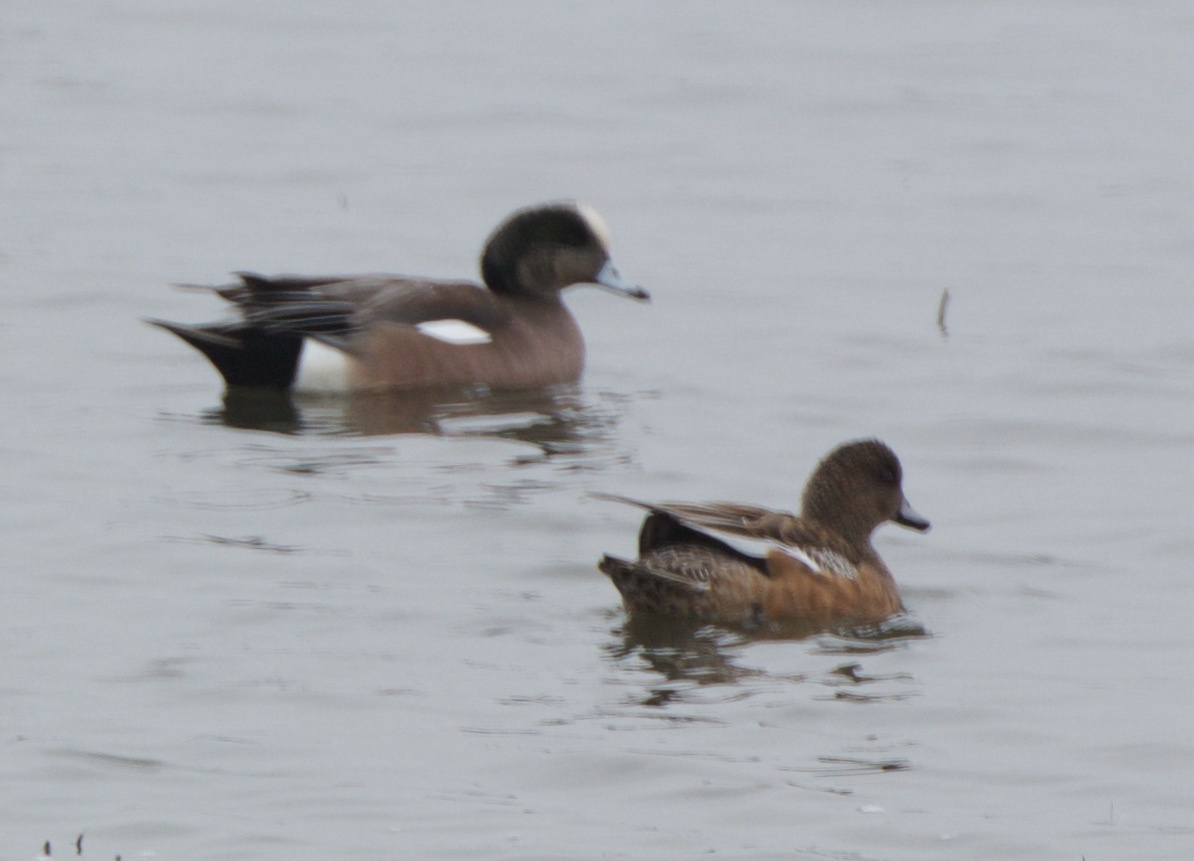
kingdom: Animalia
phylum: Chordata
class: Aves
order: Anseriformes
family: Anatidae
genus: Mareca
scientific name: Mareca americana
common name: American wigeon
